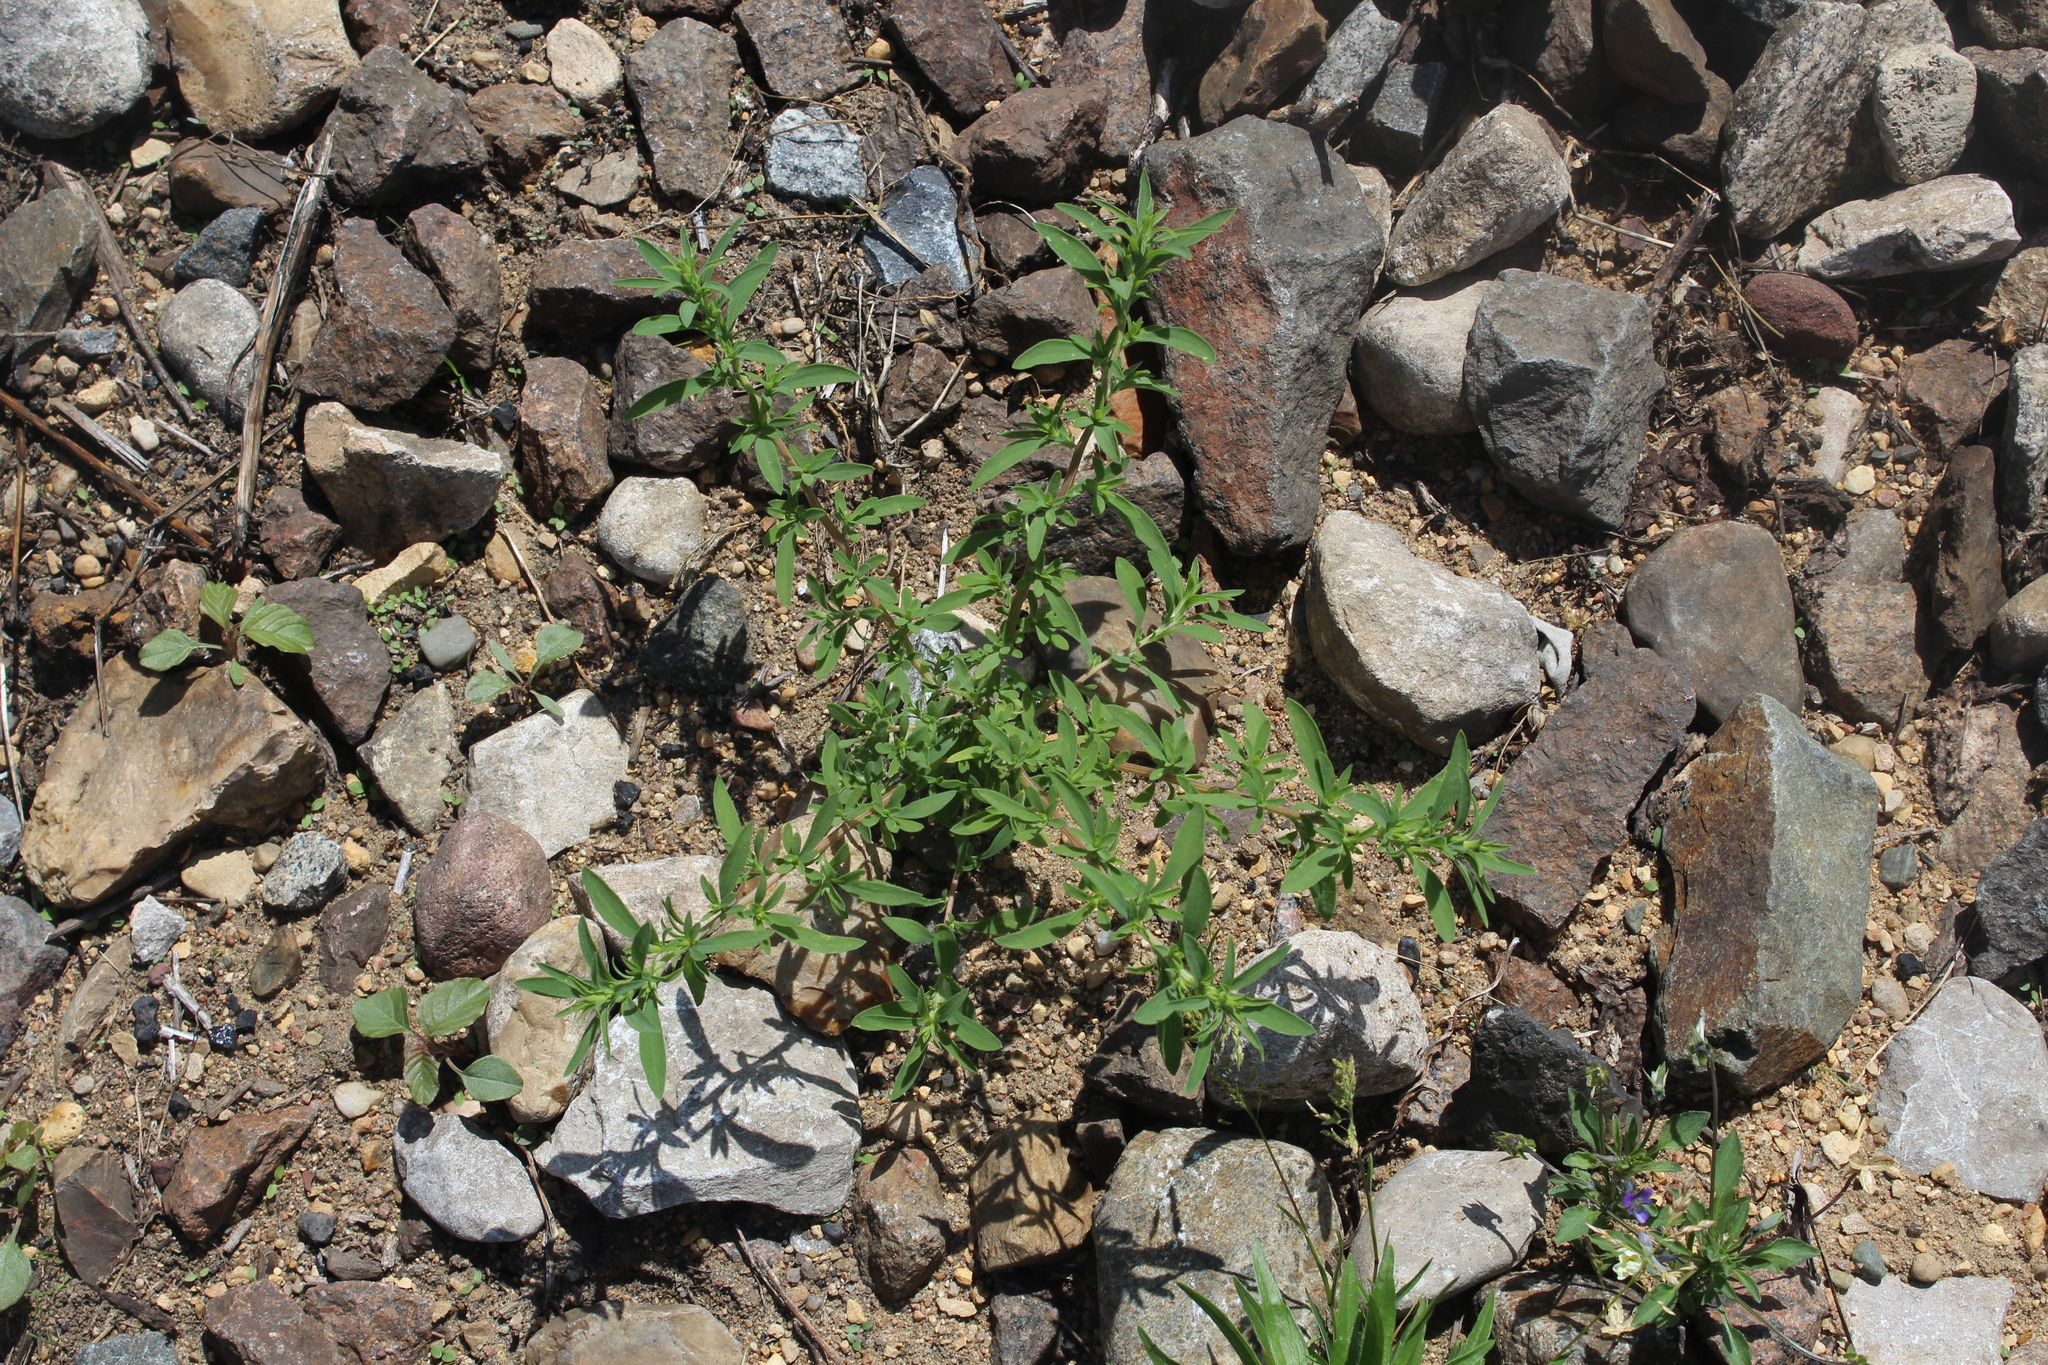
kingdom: Plantae
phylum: Tracheophyta
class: Magnoliopsida
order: Caryophyllales
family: Amaranthaceae
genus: Bassia
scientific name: Bassia scoparia
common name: Belvedere
